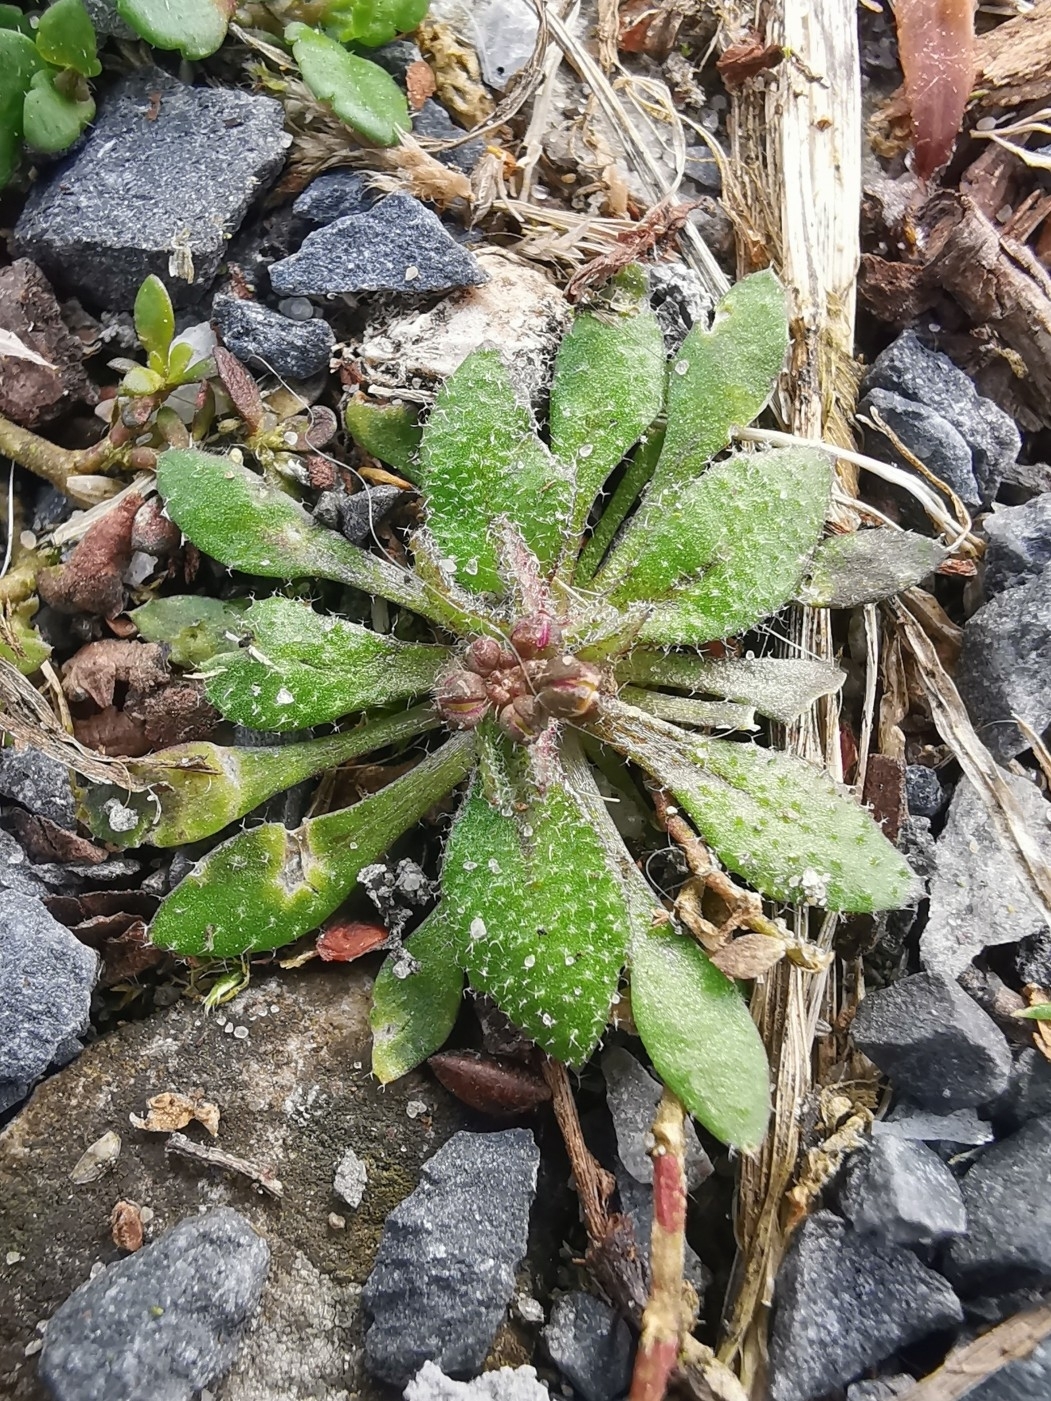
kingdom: Plantae
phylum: Tracheophyta
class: Magnoliopsida
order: Brassicales
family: Brassicaceae
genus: Draba
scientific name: Draba verna
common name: Spring draba
